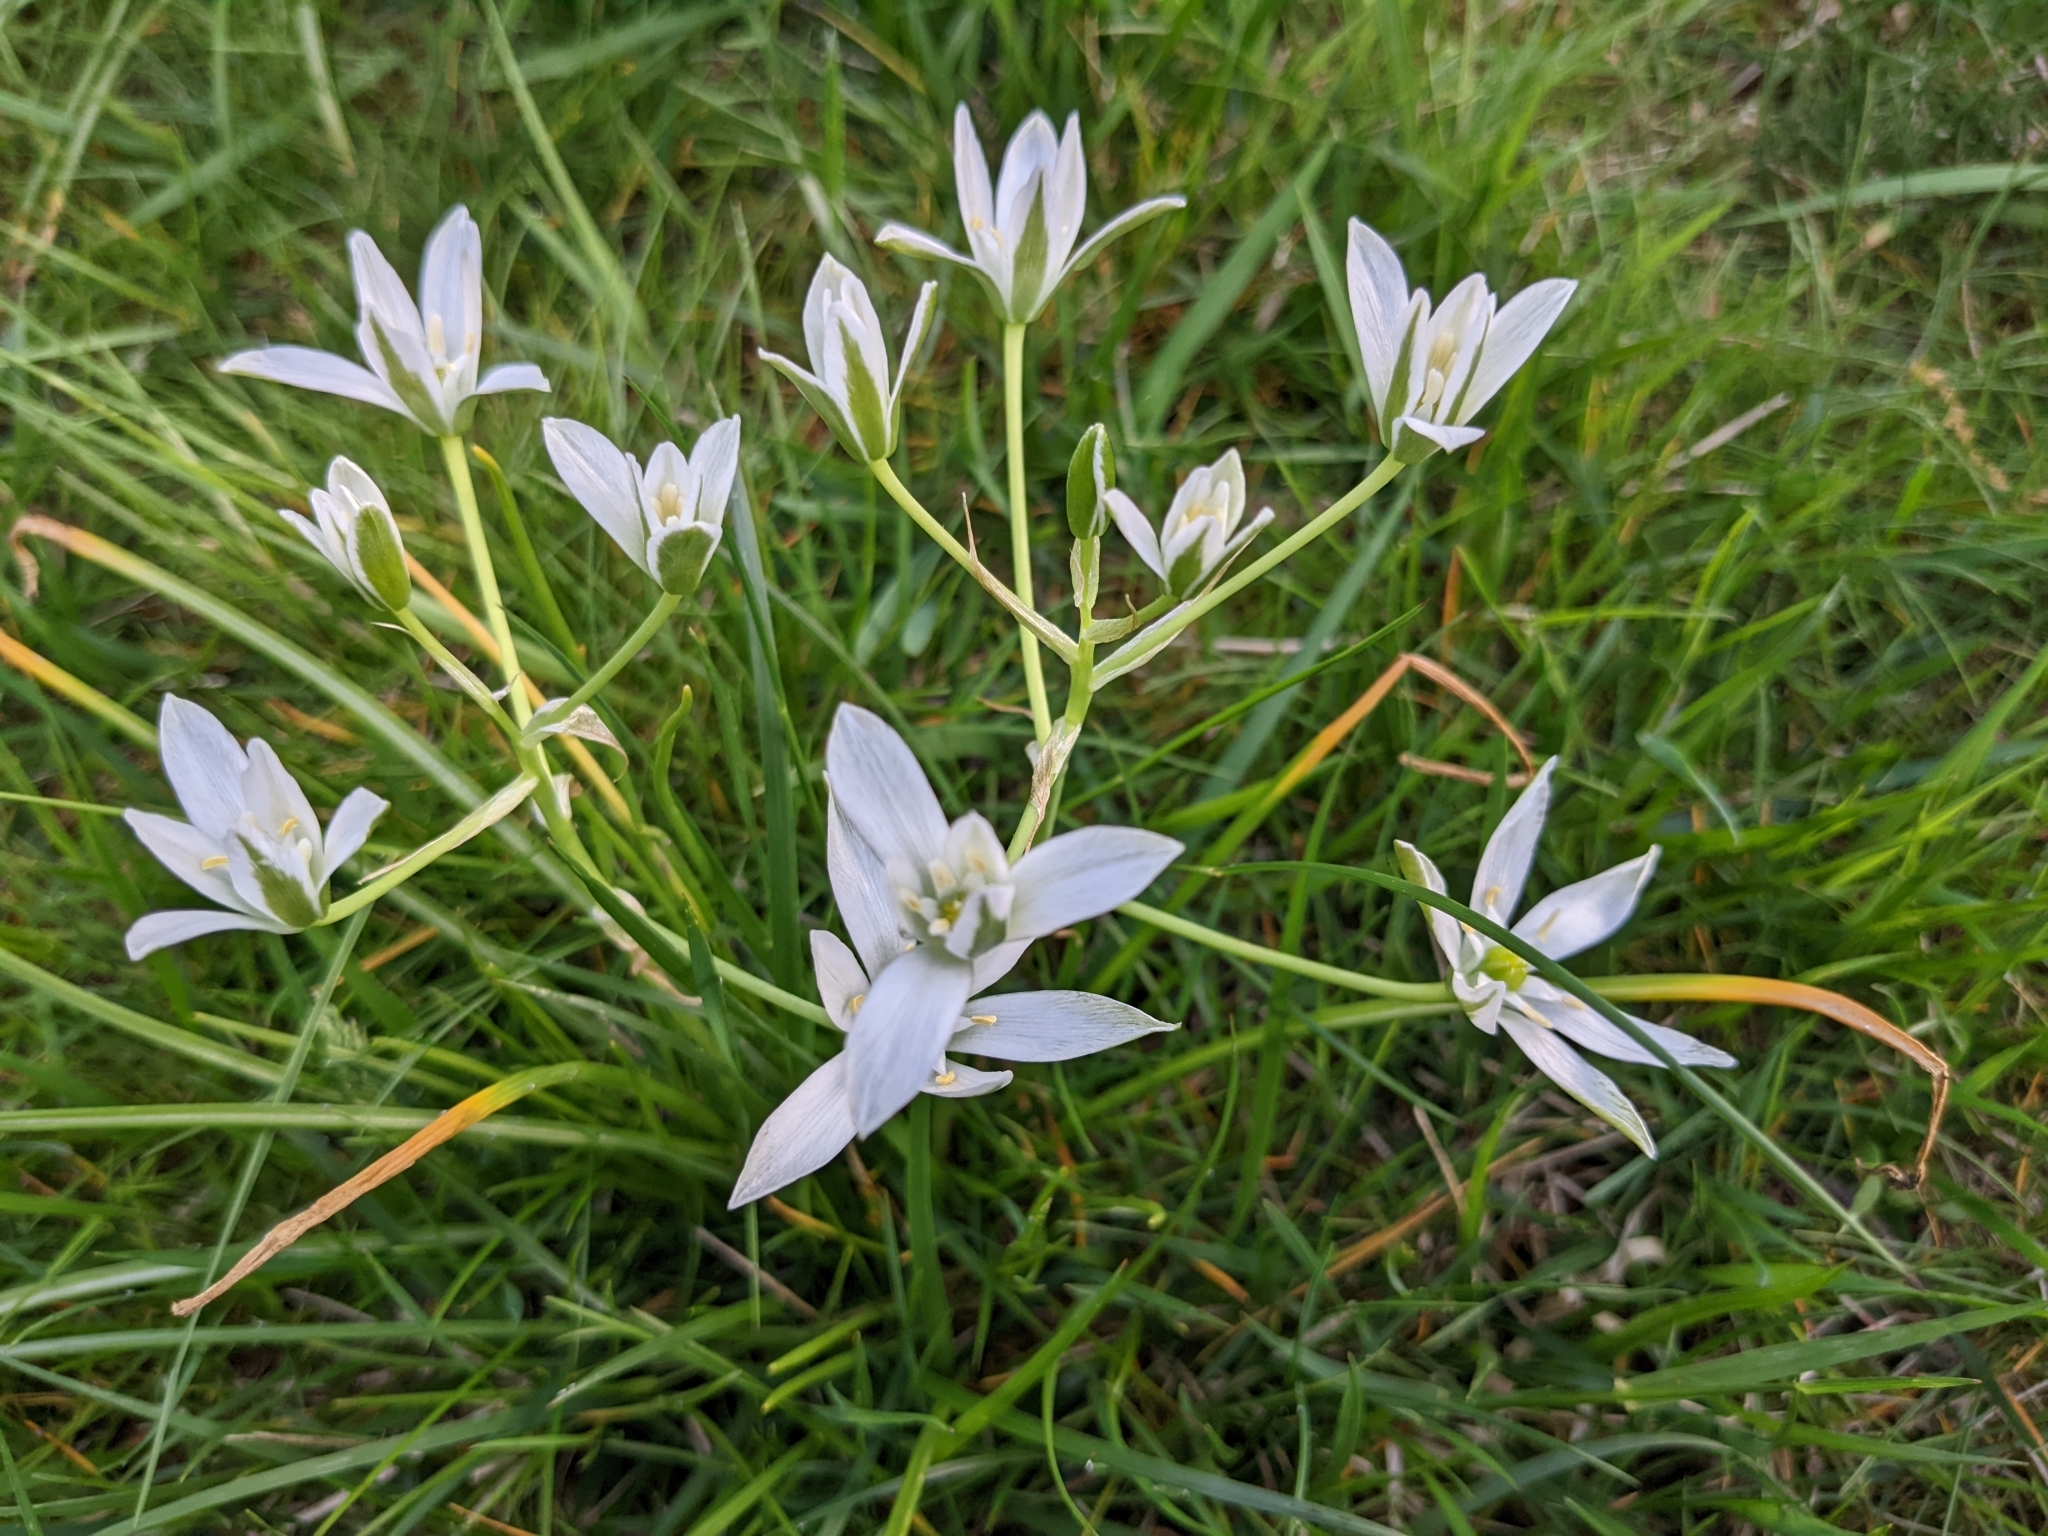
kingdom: Plantae
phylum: Tracheophyta
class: Liliopsida
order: Asparagales
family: Asparagaceae
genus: Ornithogalum
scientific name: Ornithogalum umbellatum
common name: Garden star-of-bethlehem
